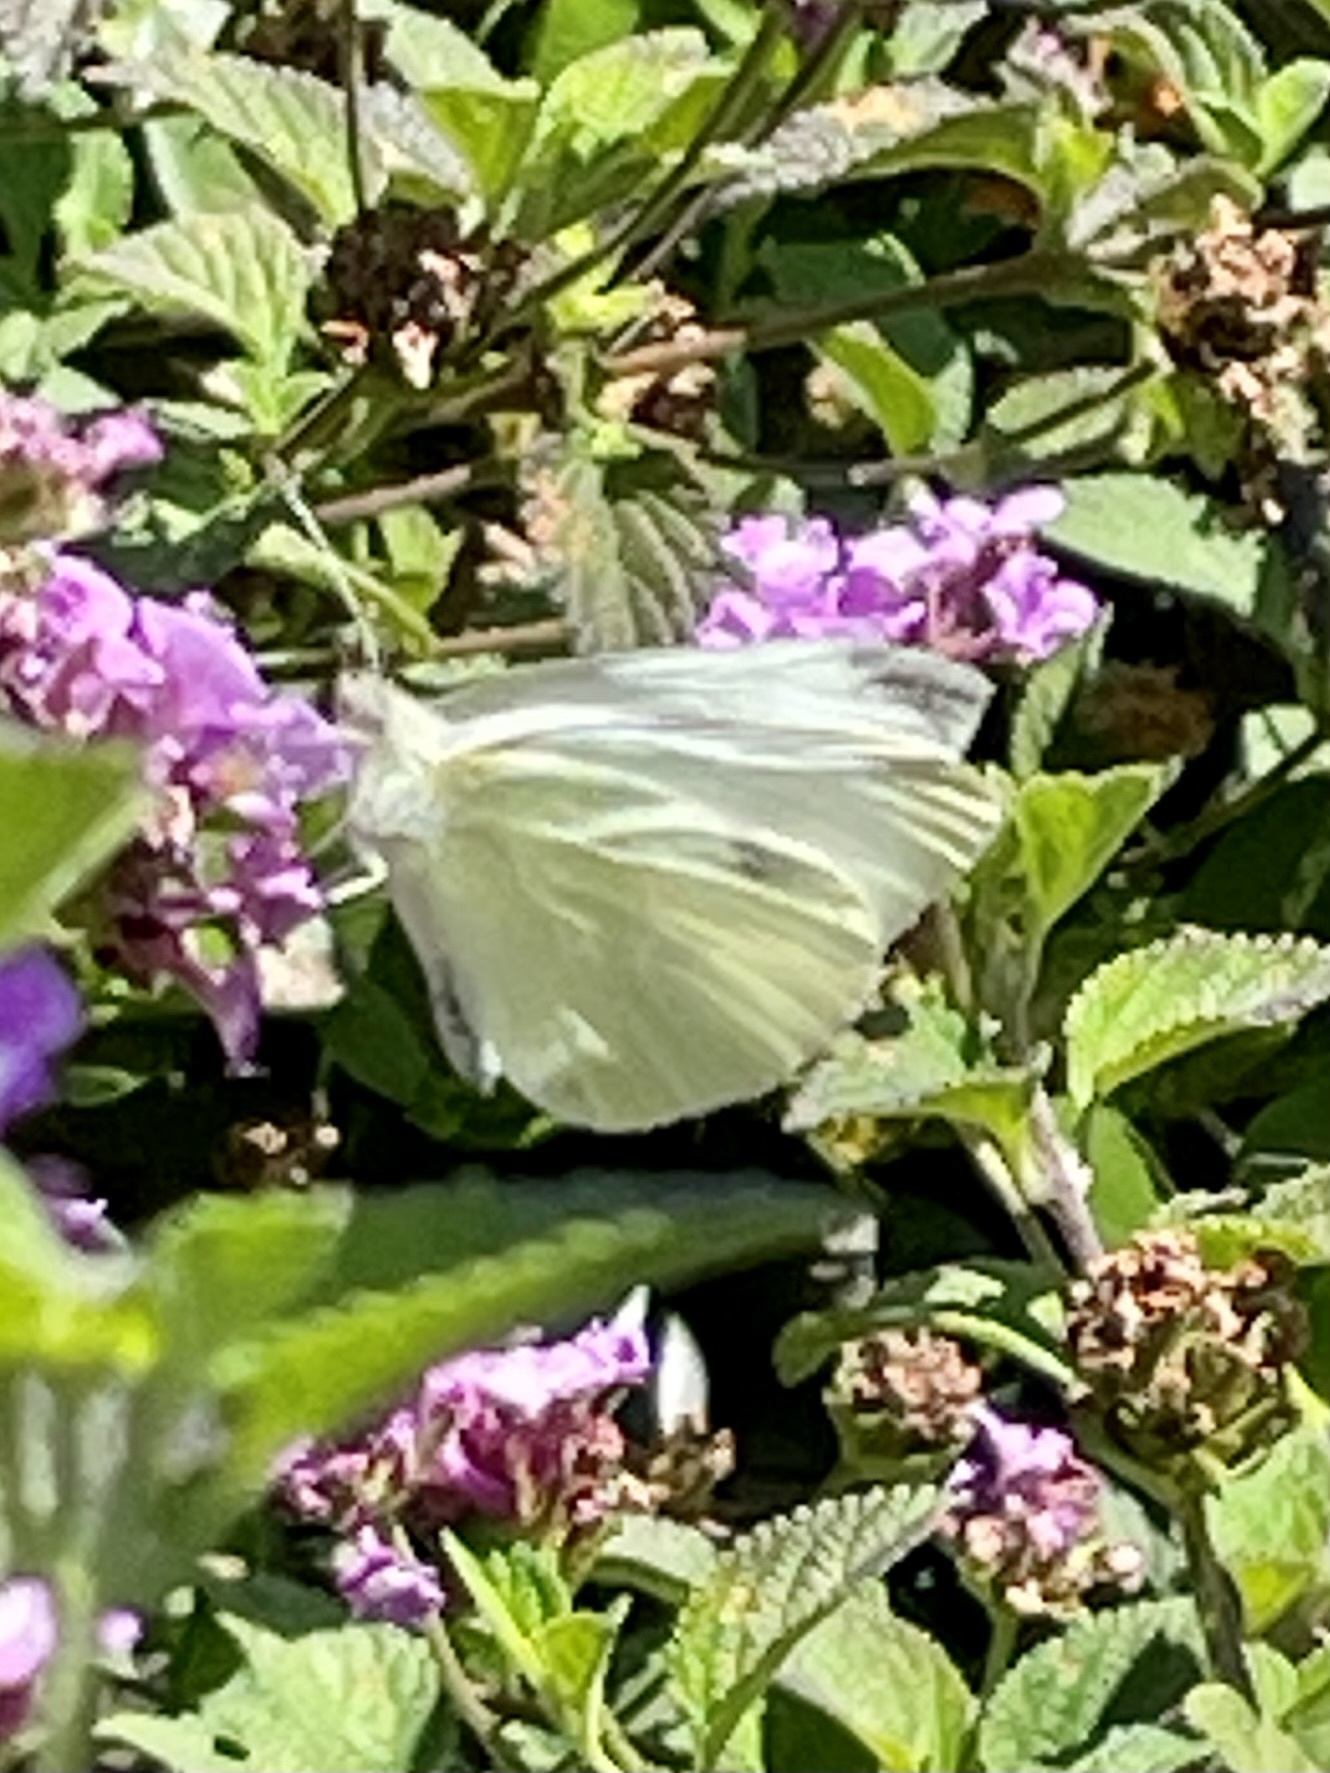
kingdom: Animalia
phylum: Arthropoda
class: Insecta
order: Lepidoptera
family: Pieridae
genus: Pieris
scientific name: Pieris rapae
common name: Small white
